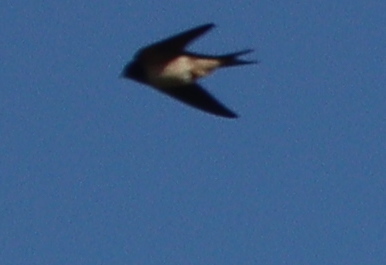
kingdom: Animalia
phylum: Chordata
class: Aves
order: Passeriformes
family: Hirundinidae
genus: Hirundo
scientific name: Hirundo rustica
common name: Barn swallow
